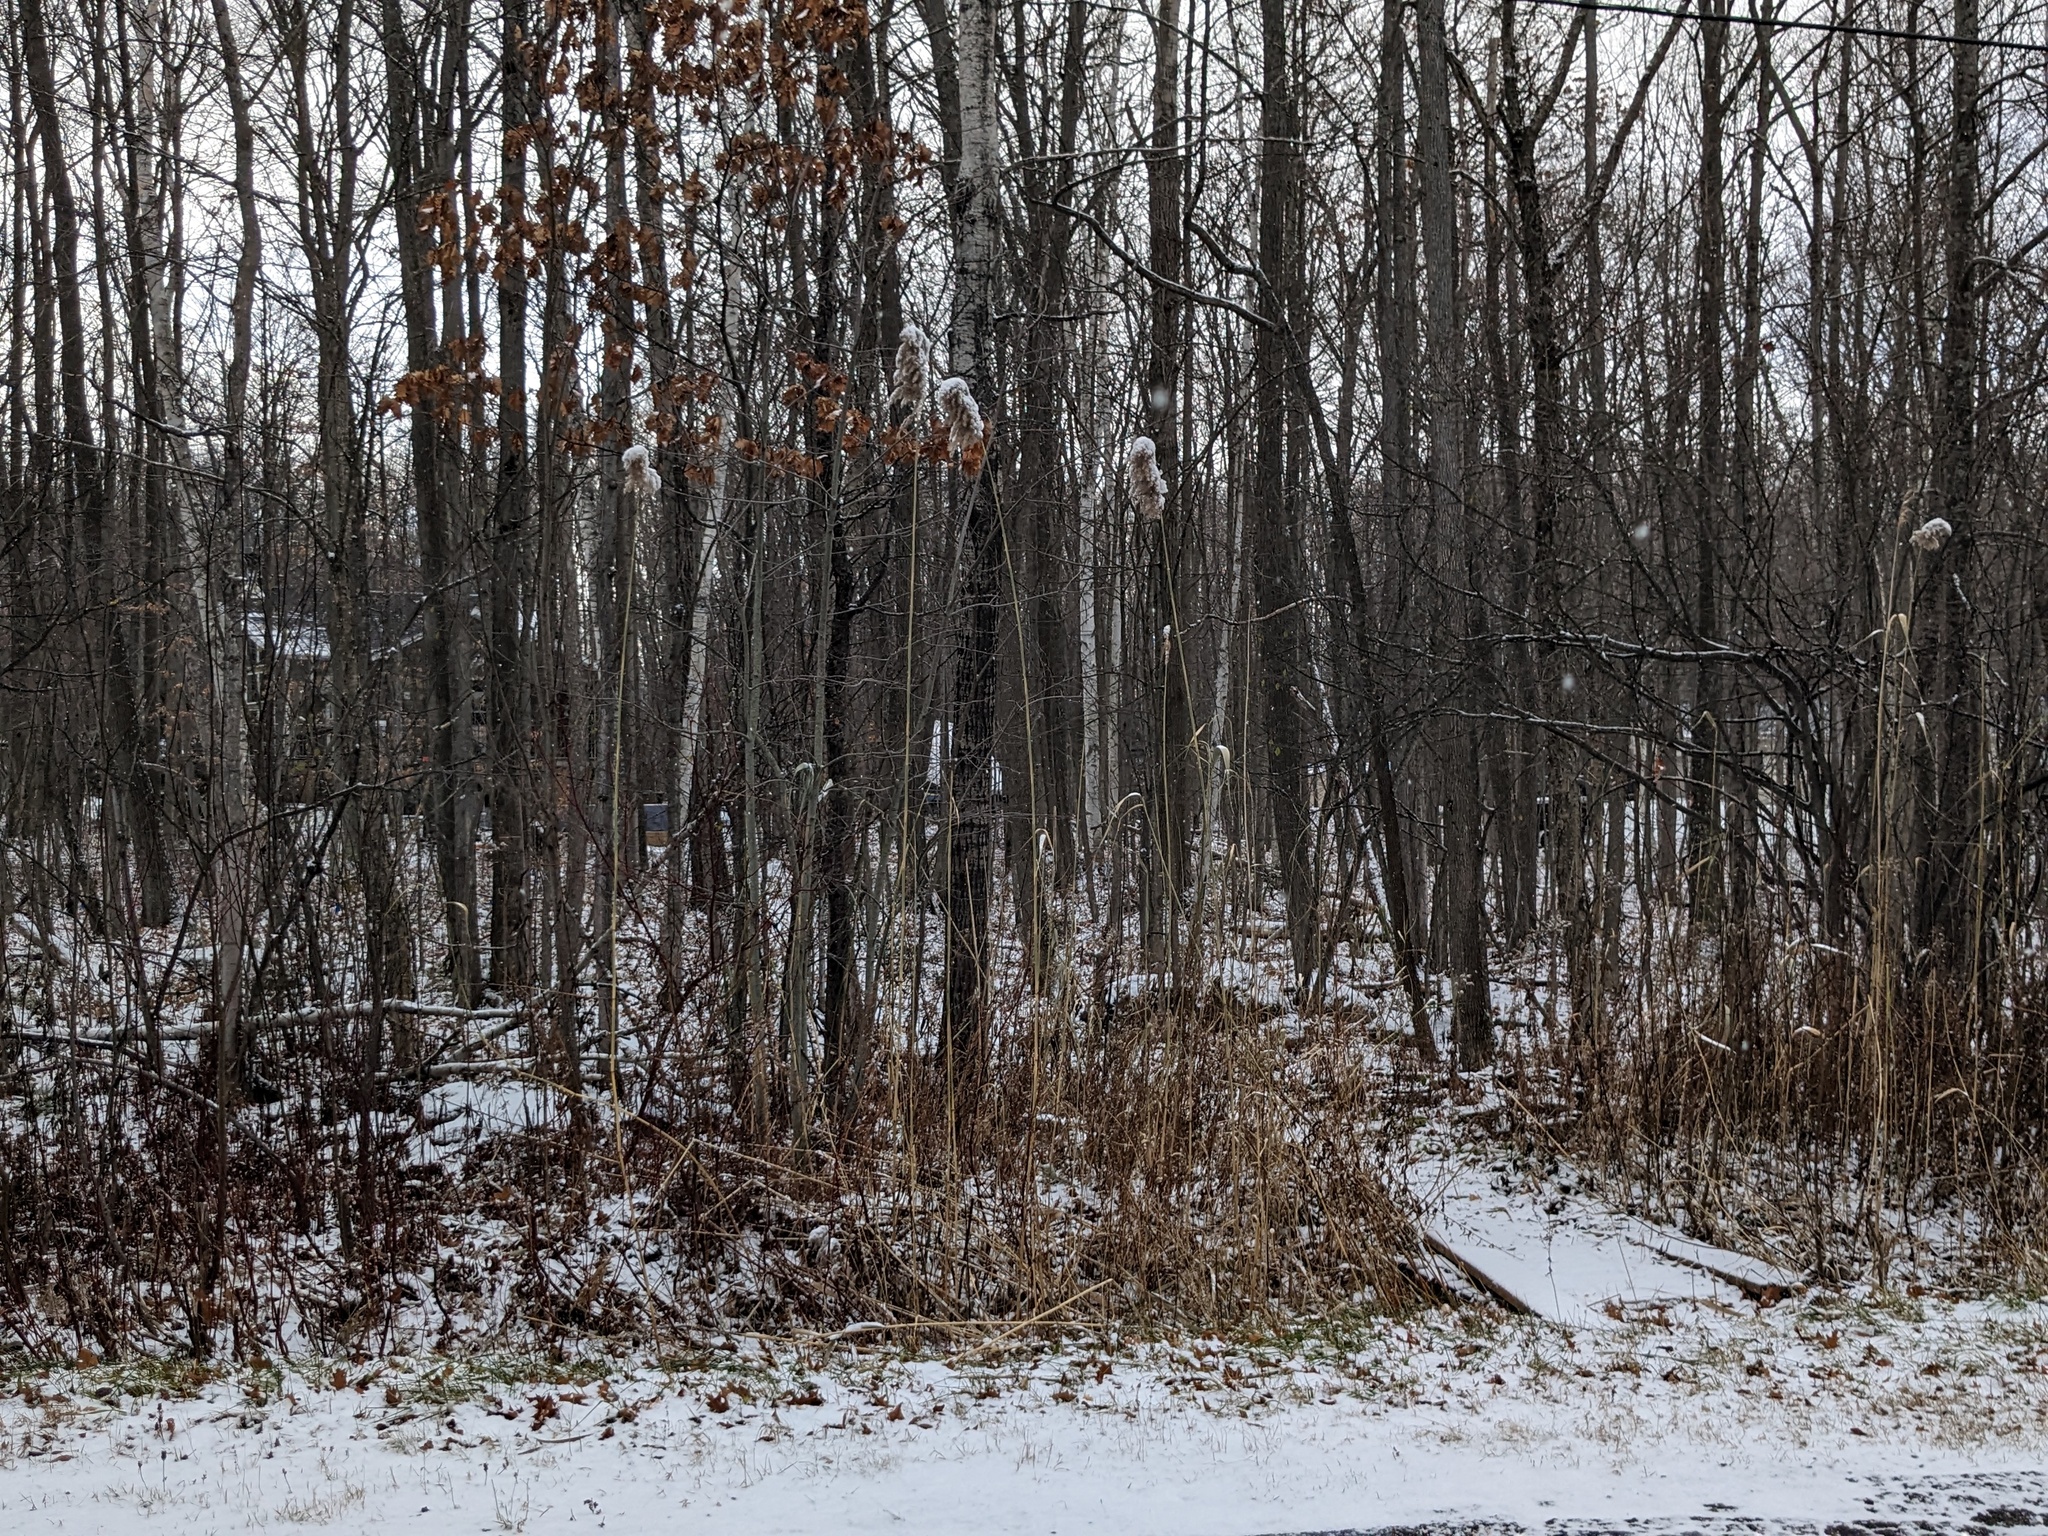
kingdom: Plantae
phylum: Tracheophyta
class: Liliopsida
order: Poales
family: Poaceae
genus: Phragmites
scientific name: Phragmites australis
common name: Common reed
